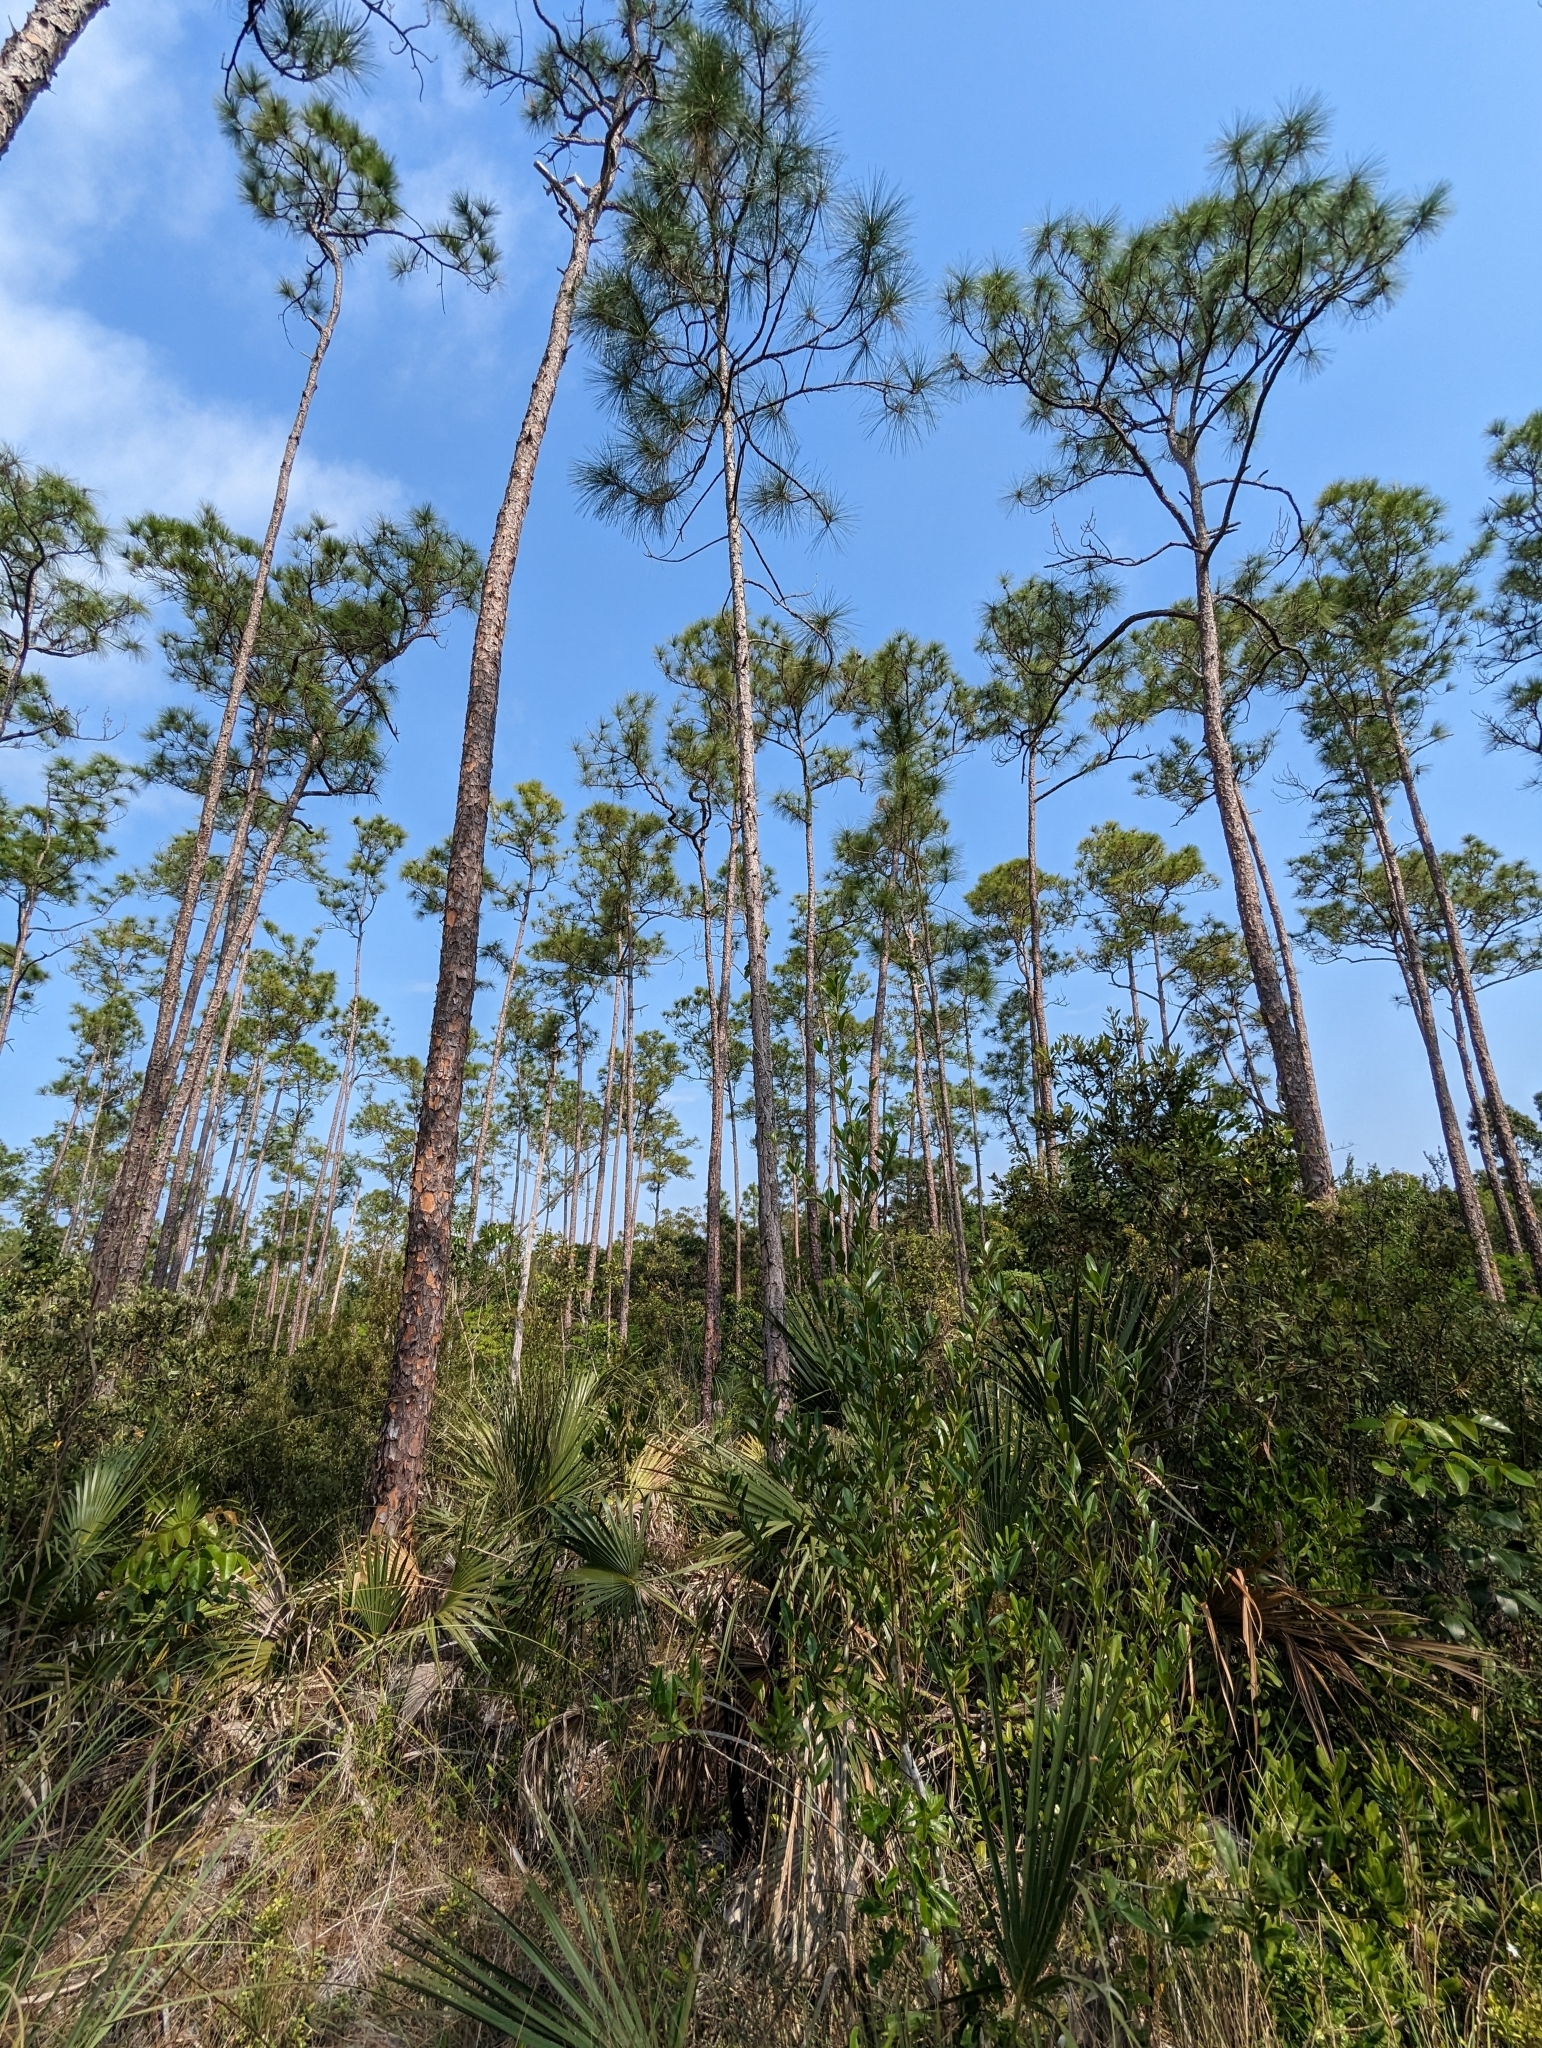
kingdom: Plantae
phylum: Tracheophyta
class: Pinopsida
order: Pinales
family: Pinaceae
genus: Pinus
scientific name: Pinus elliottii
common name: Slash pine
